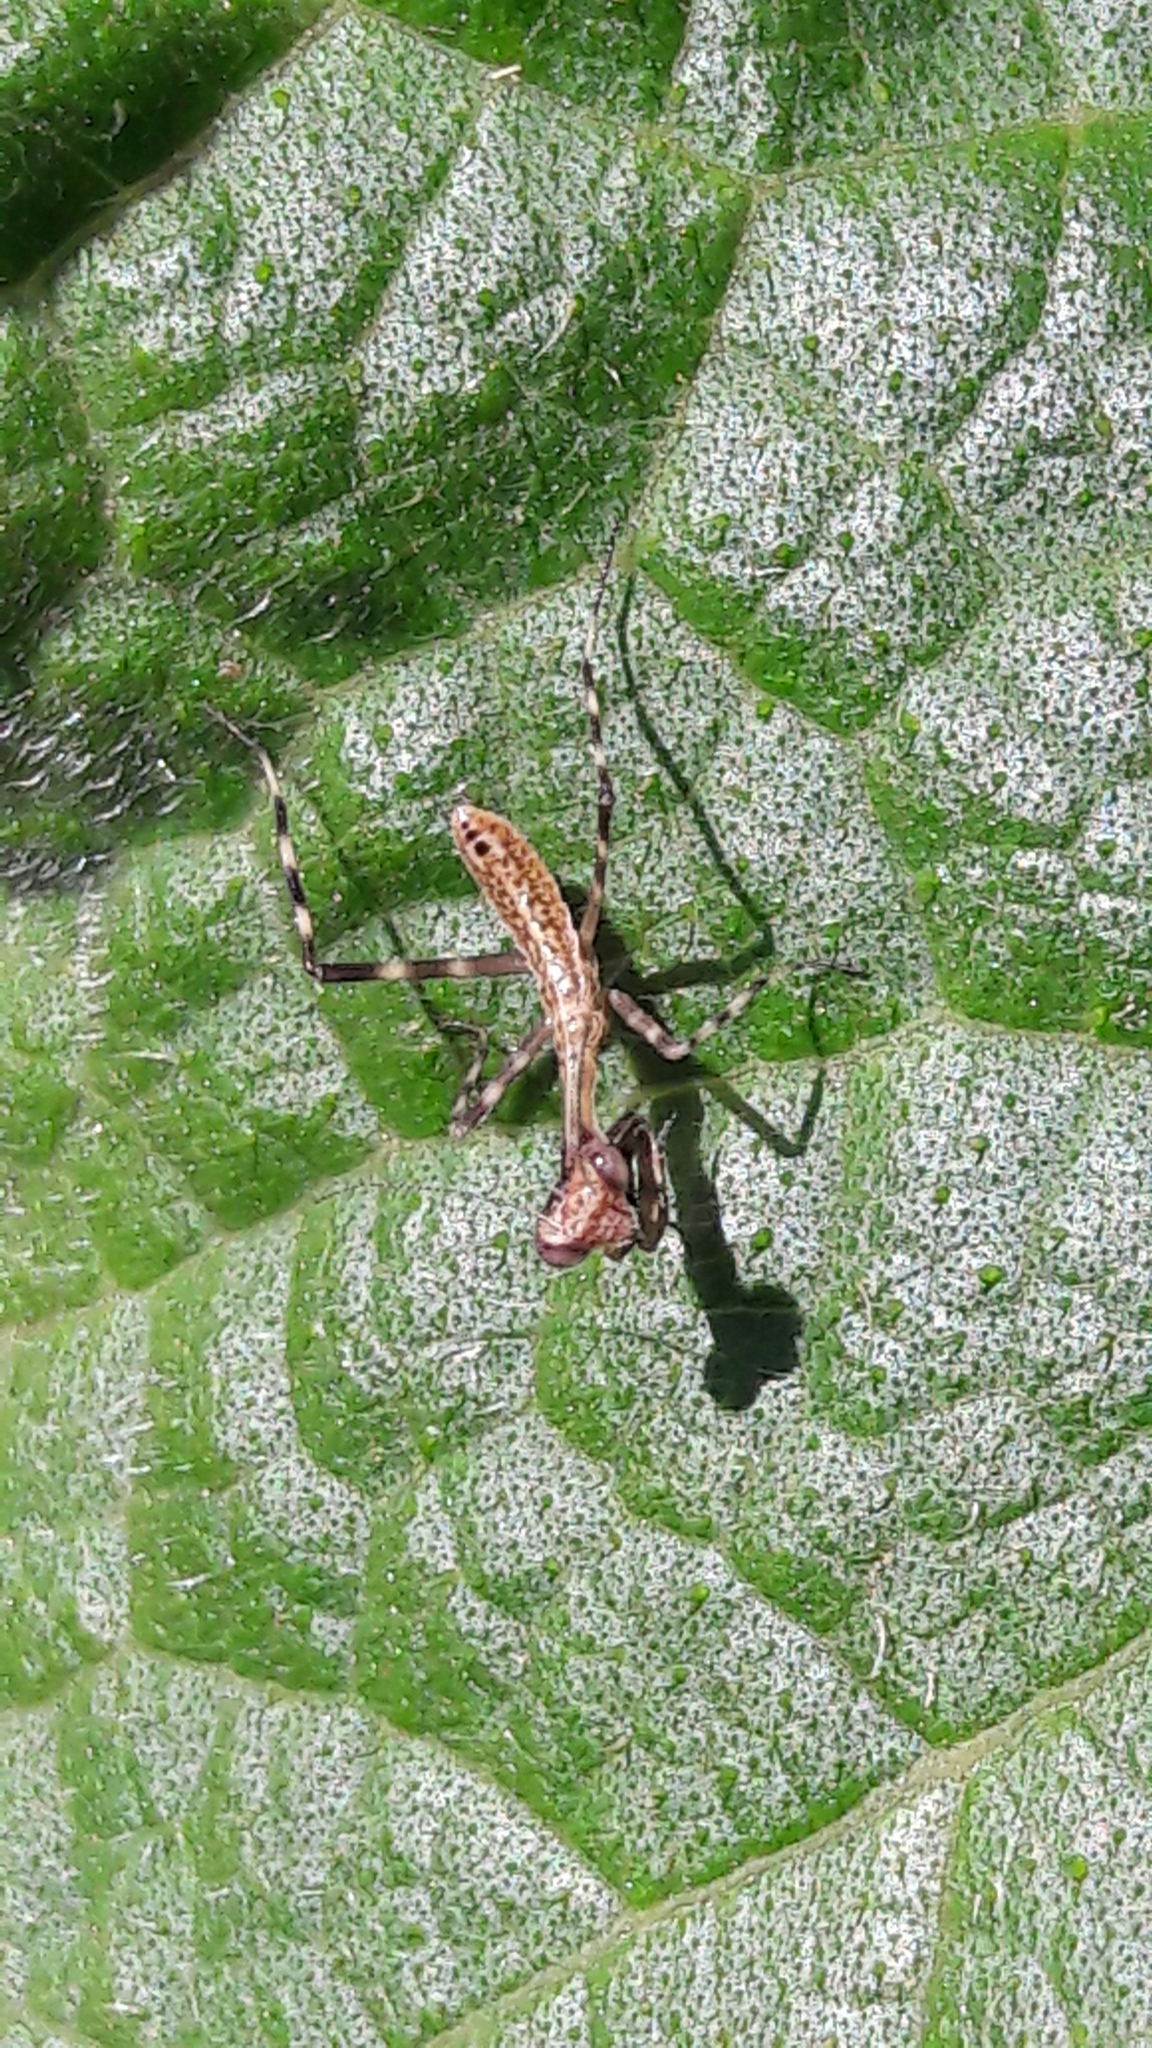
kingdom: Animalia
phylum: Arthropoda
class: Insecta
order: Mantodea
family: Mantidae
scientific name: Mantidae
